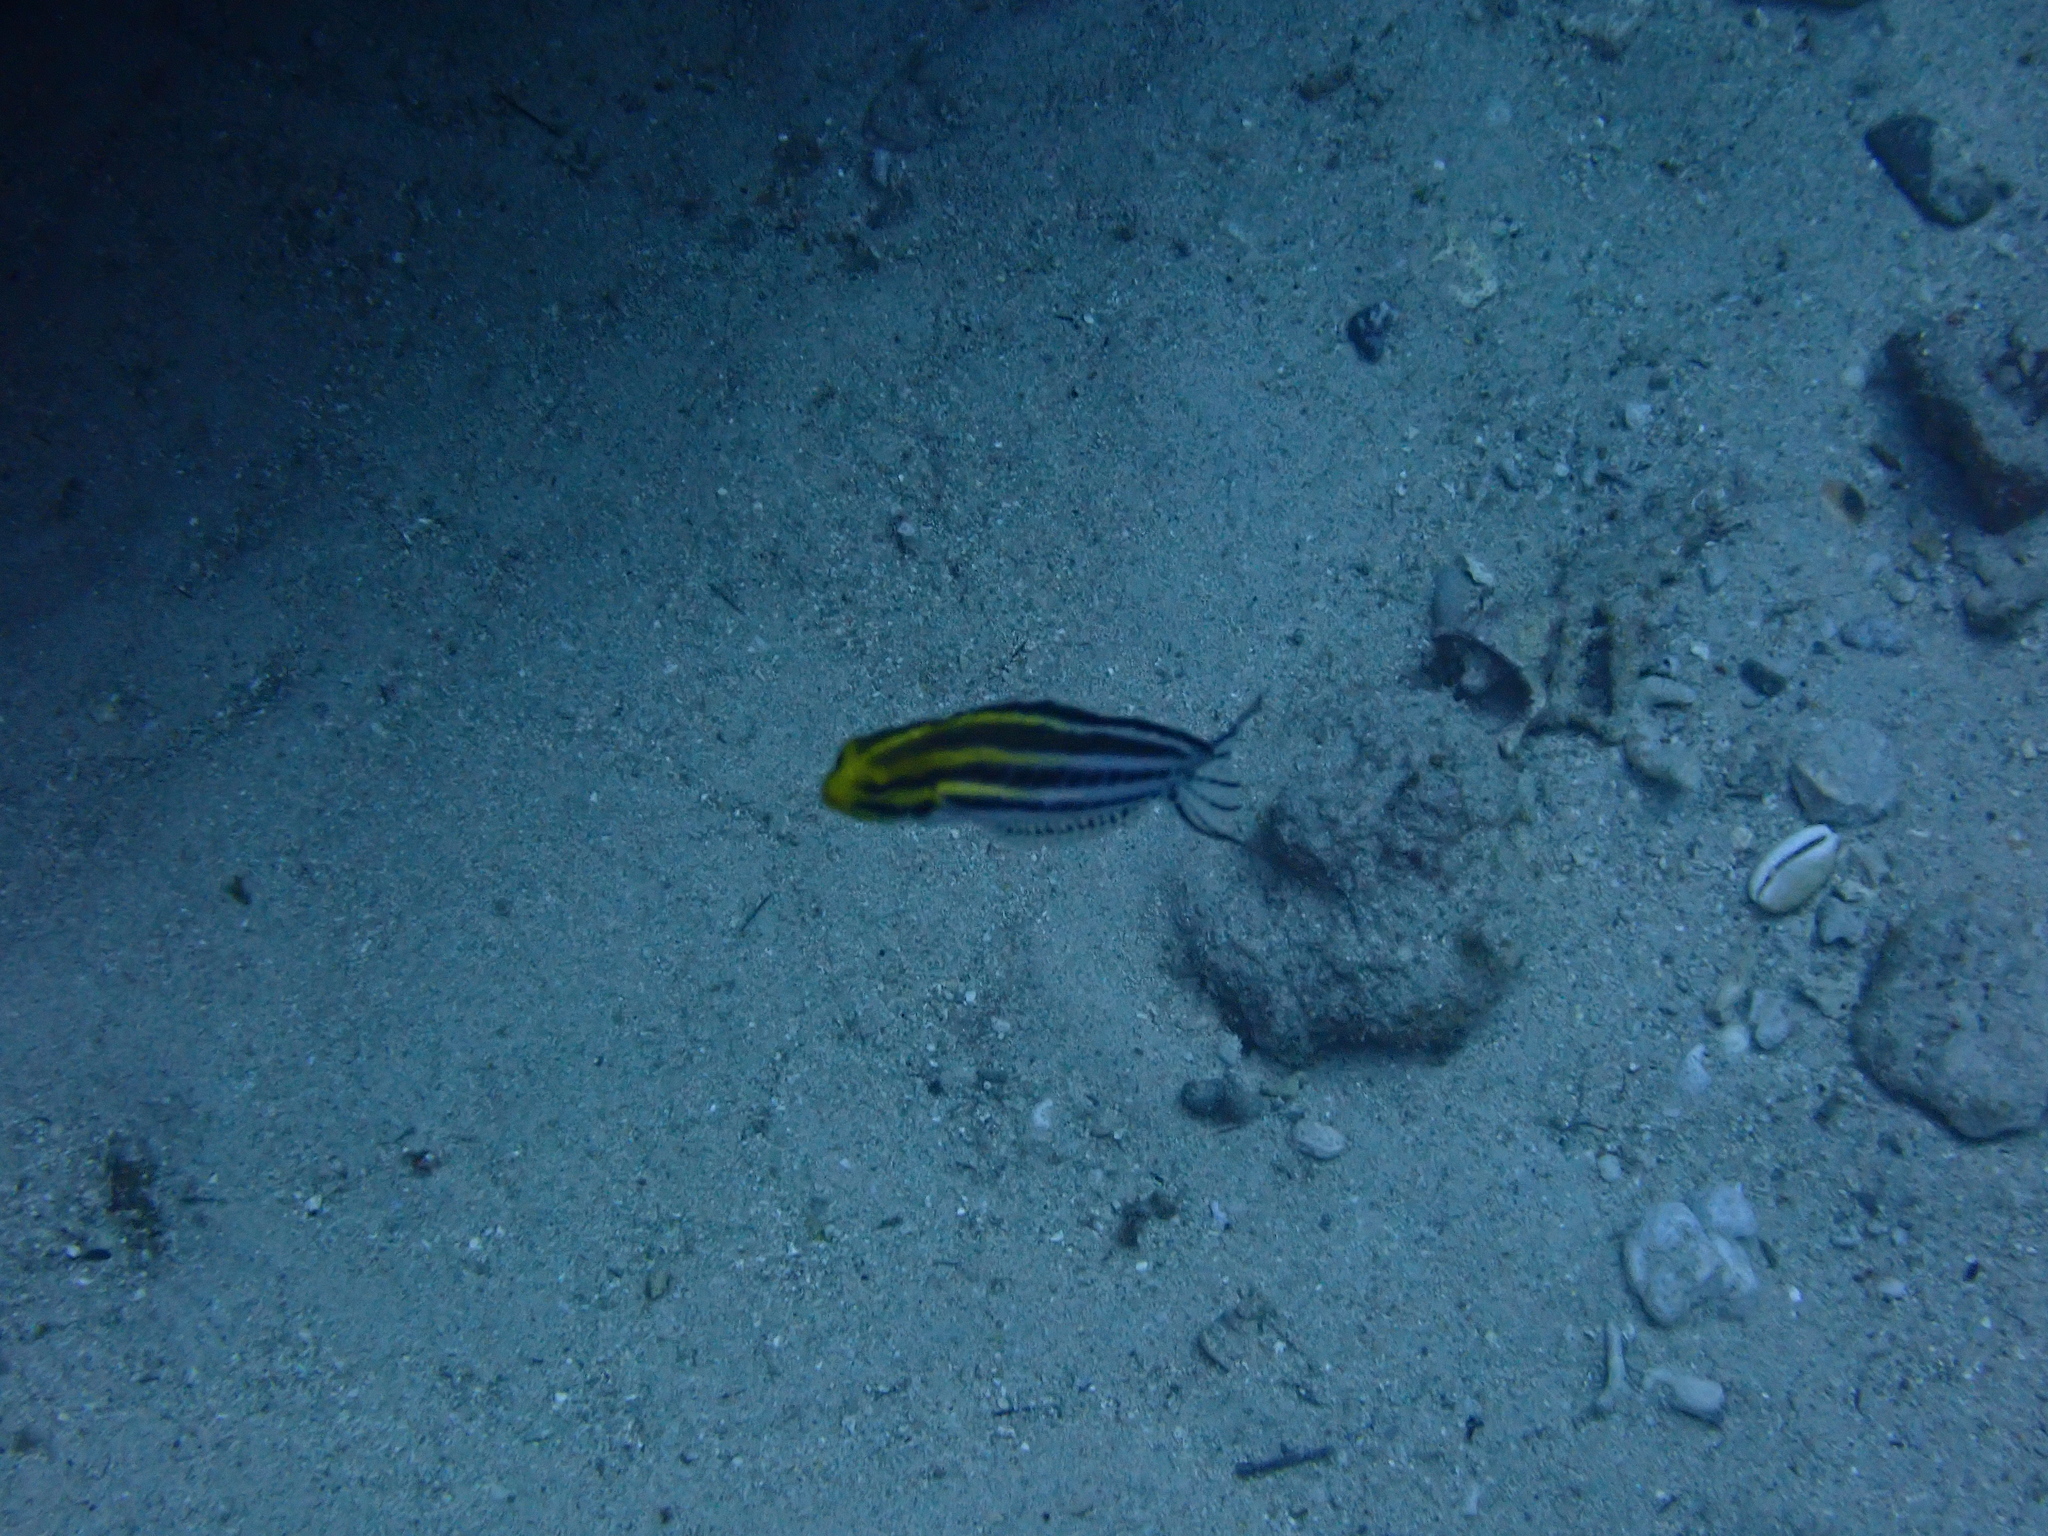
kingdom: Animalia
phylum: Chordata
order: Perciformes
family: Blenniidae
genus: Meiacanthus
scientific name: Meiacanthus grammistes
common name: Grammistes blenny
